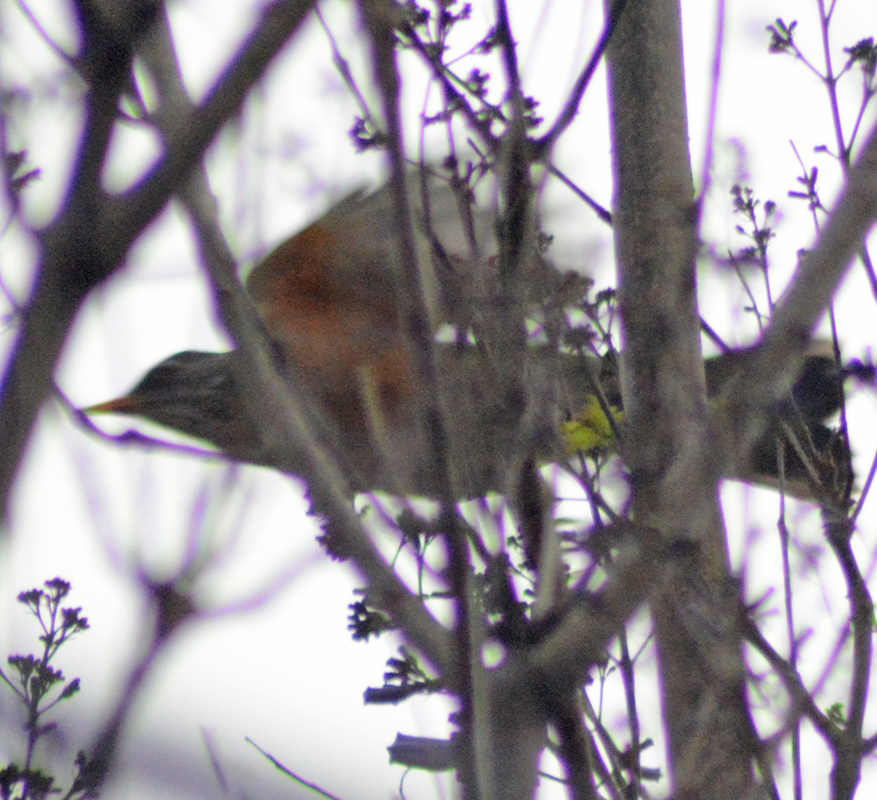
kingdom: Animalia
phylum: Chordata
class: Aves
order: Passeriformes
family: Turdidae
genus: Turdus
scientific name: Turdus migratorius
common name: American robin
